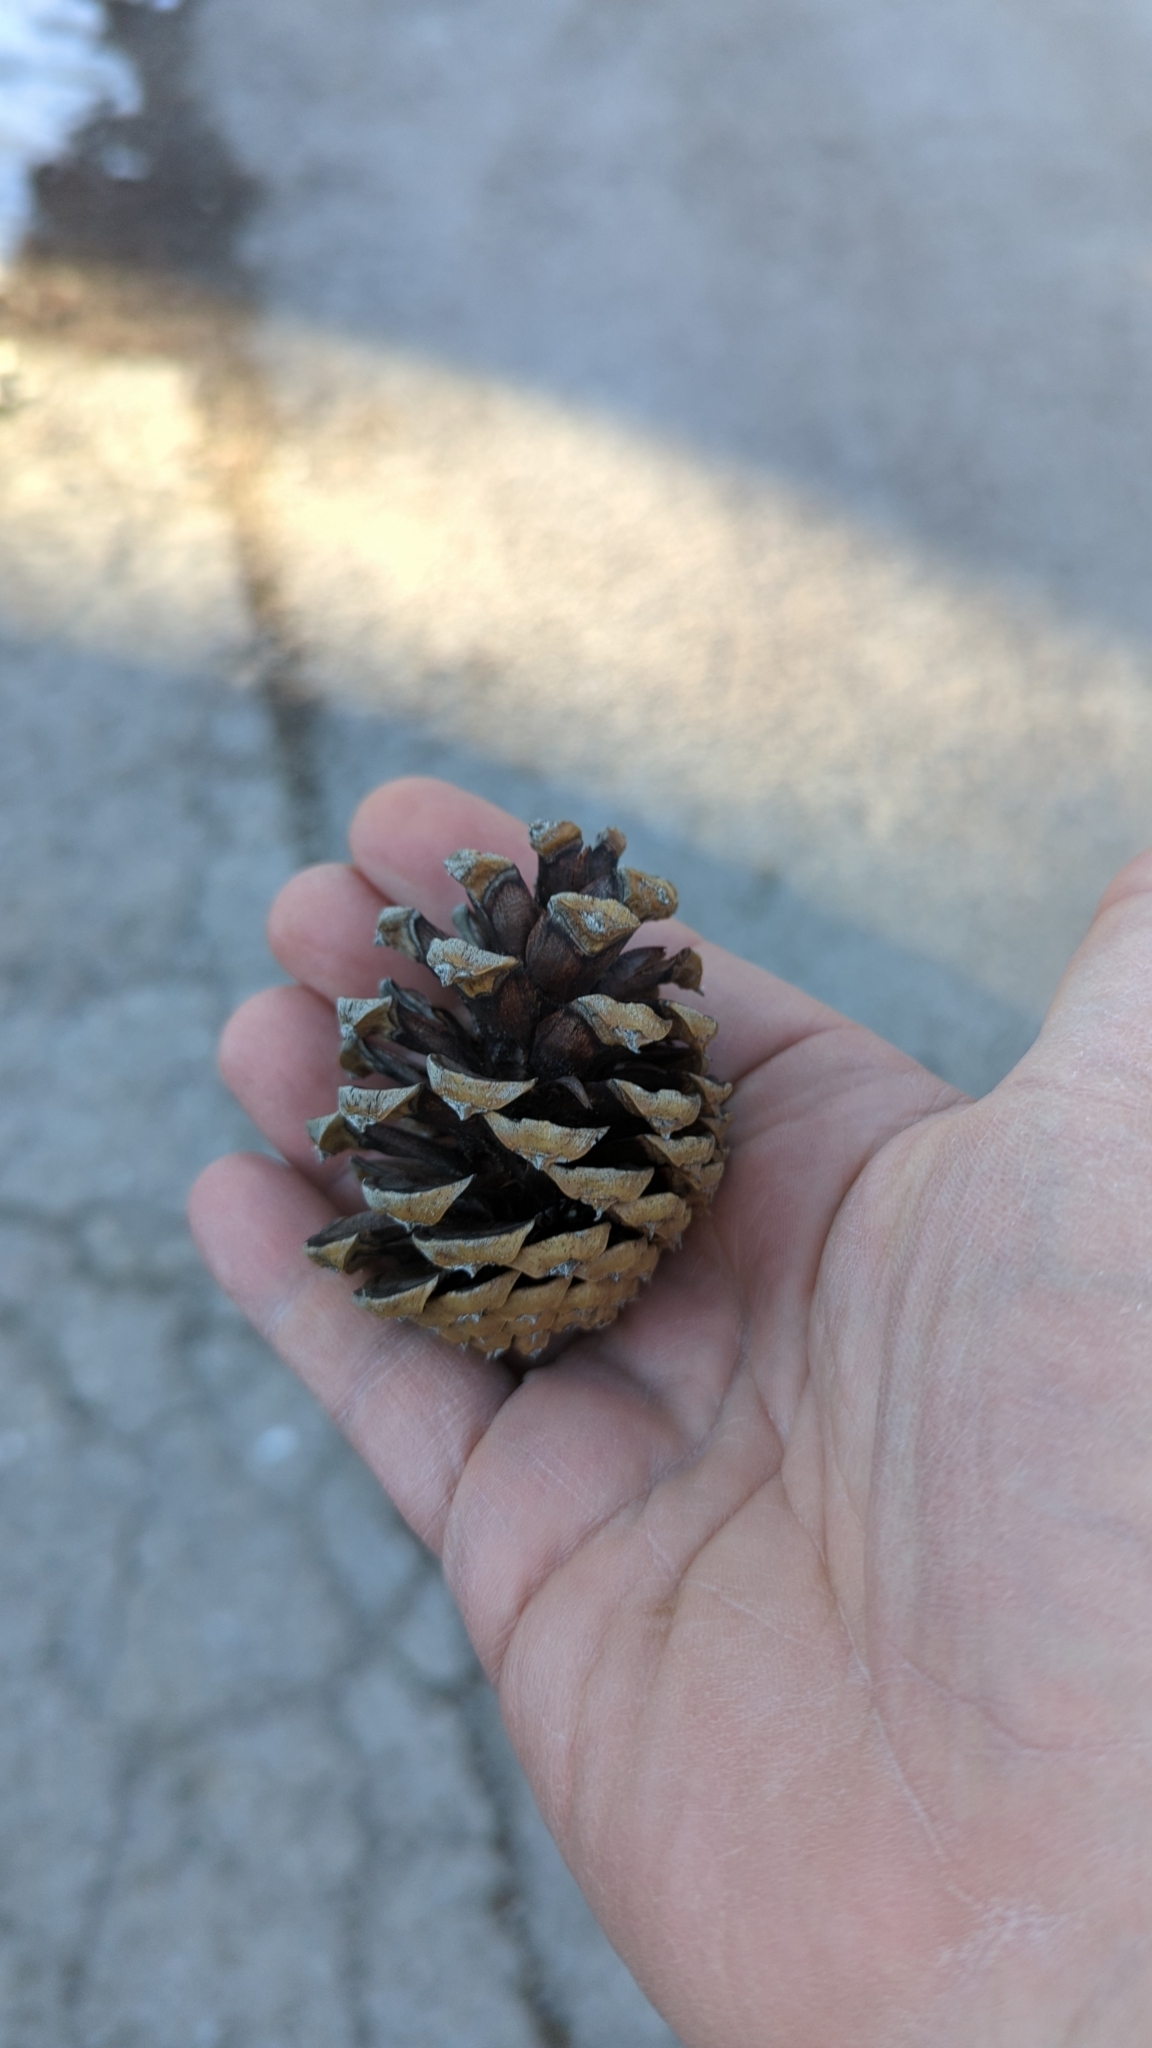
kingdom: Plantae
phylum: Tracheophyta
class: Pinopsida
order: Pinales
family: Pinaceae
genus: Pinus
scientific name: Pinus ponderosa
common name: Western yellow-pine
